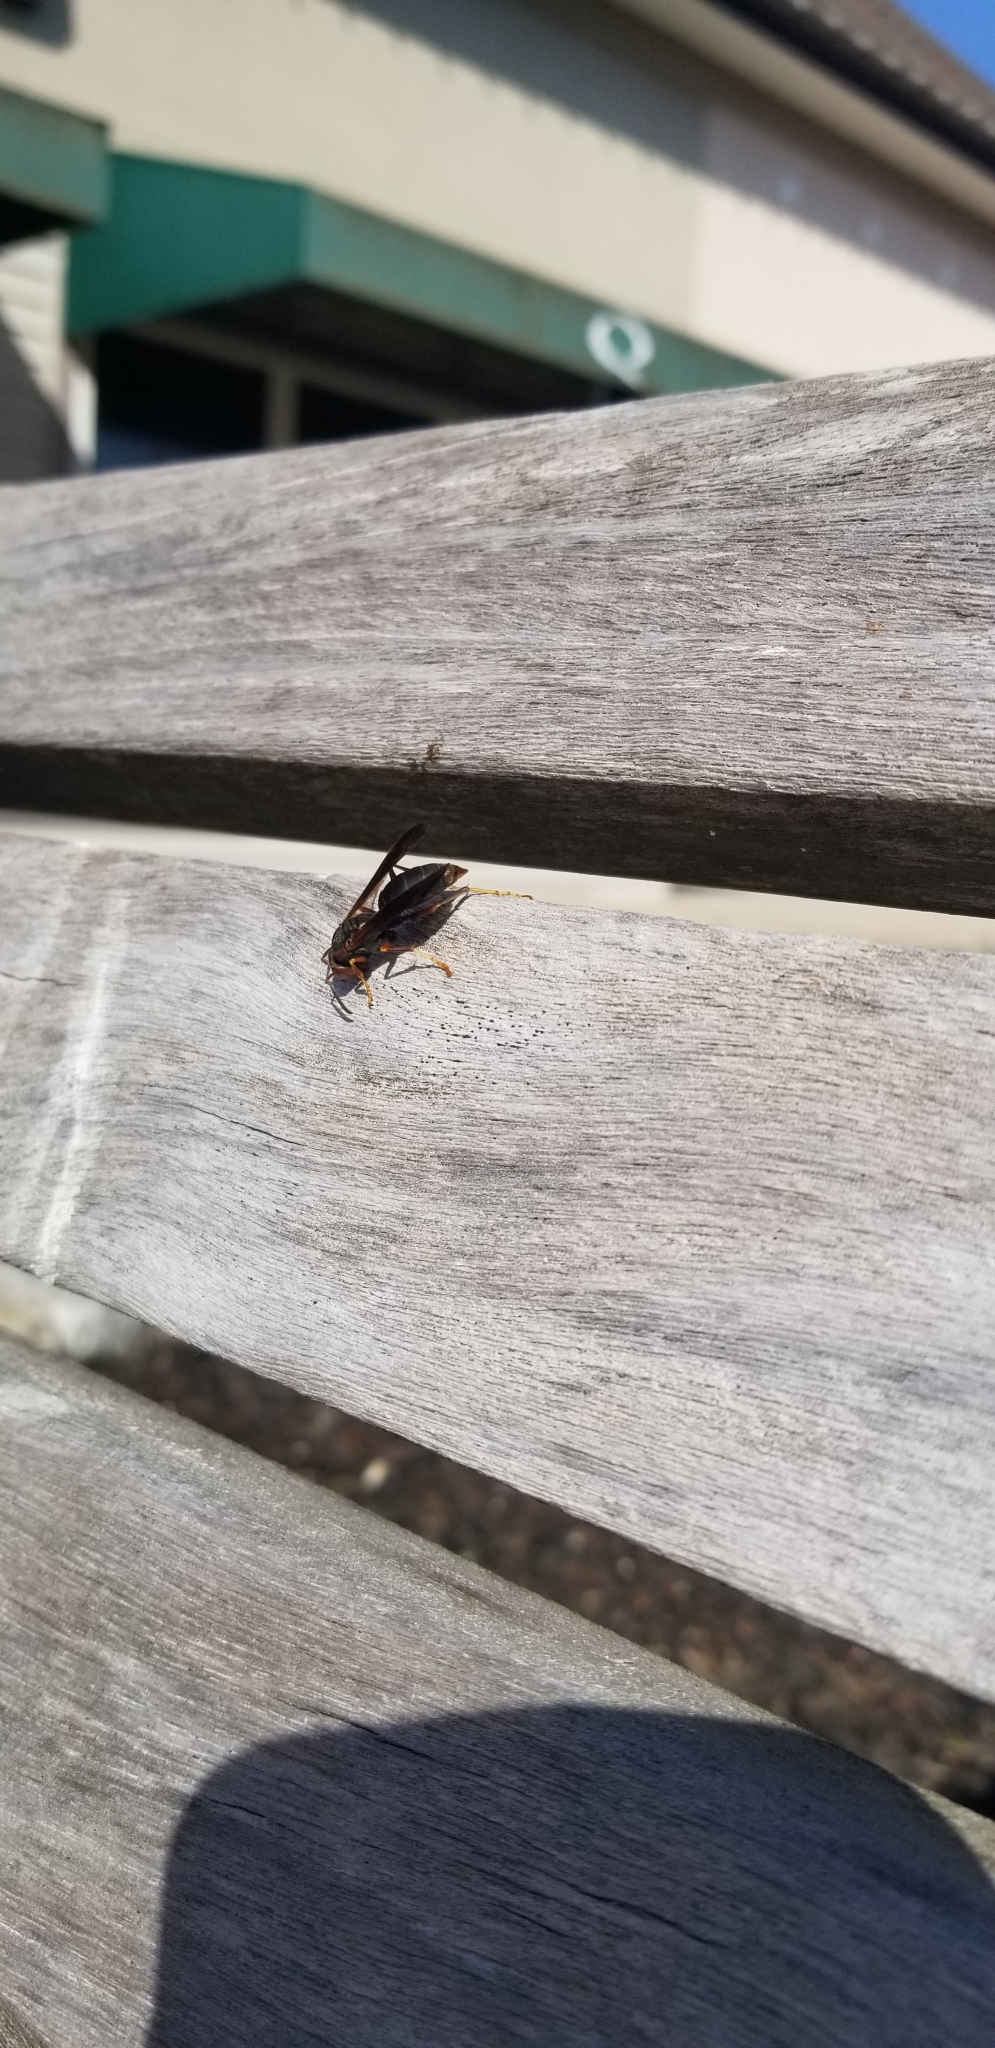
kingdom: Animalia
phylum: Arthropoda
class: Insecta
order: Hymenoptera
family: Vespidae
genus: Fuscopolistes
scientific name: Fuscopolistes
